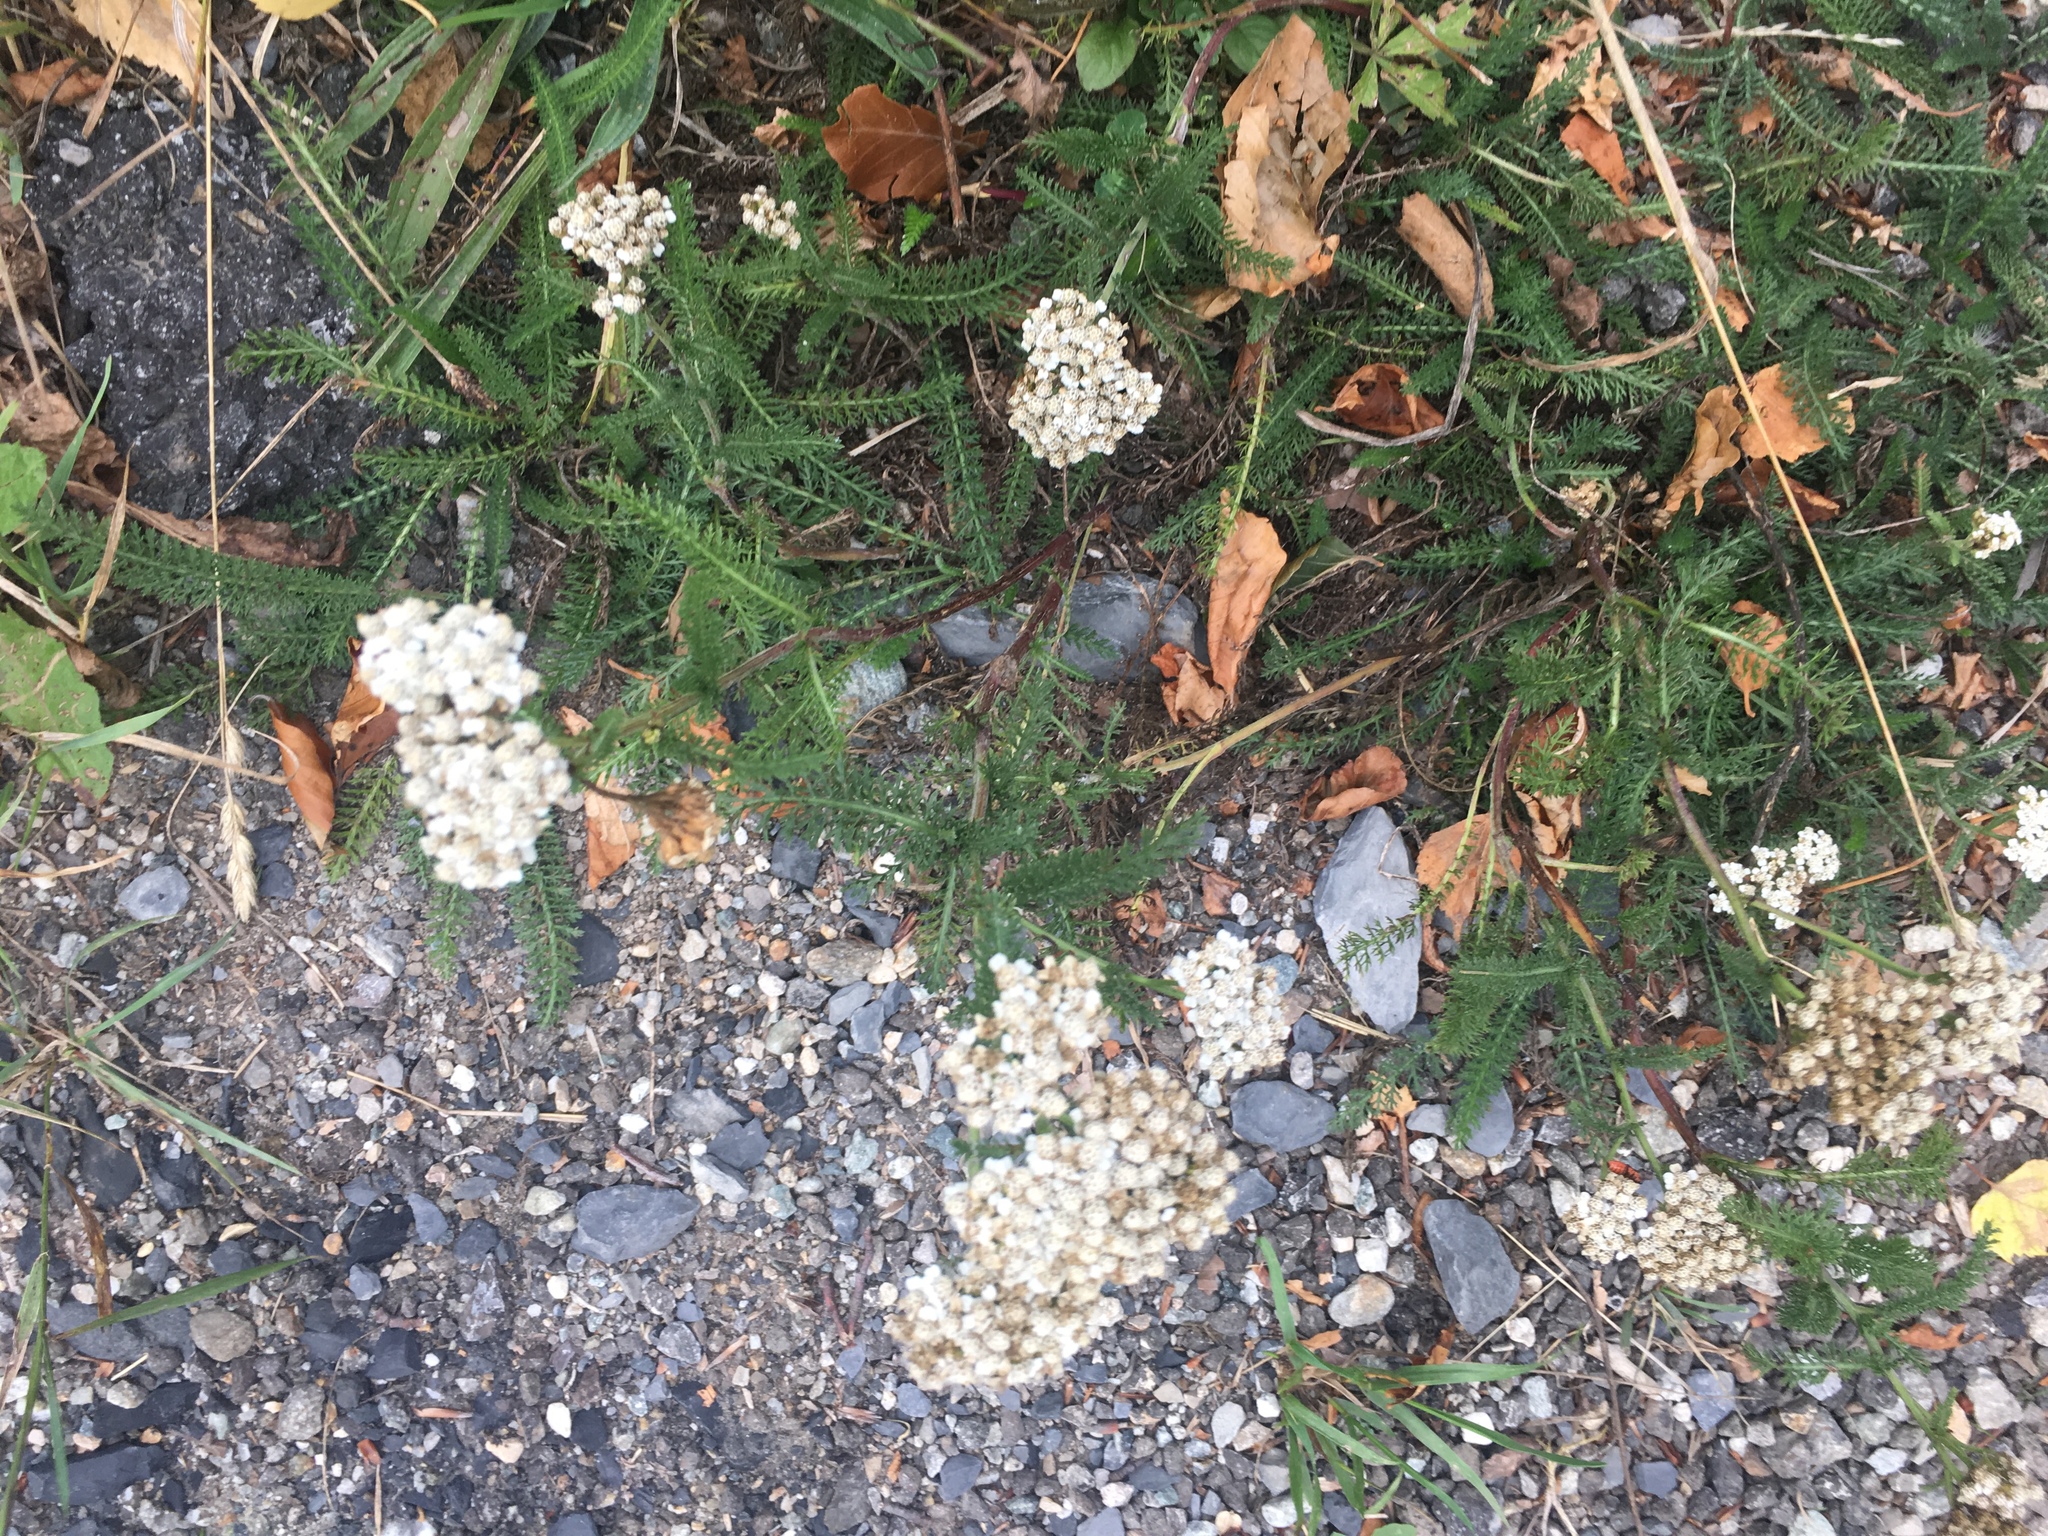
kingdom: Plantae
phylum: Tracheophyta
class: Magnoliopsida
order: Asterales
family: Asteraceae
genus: Achillea
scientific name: Achillea millefolium
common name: Yarrow
